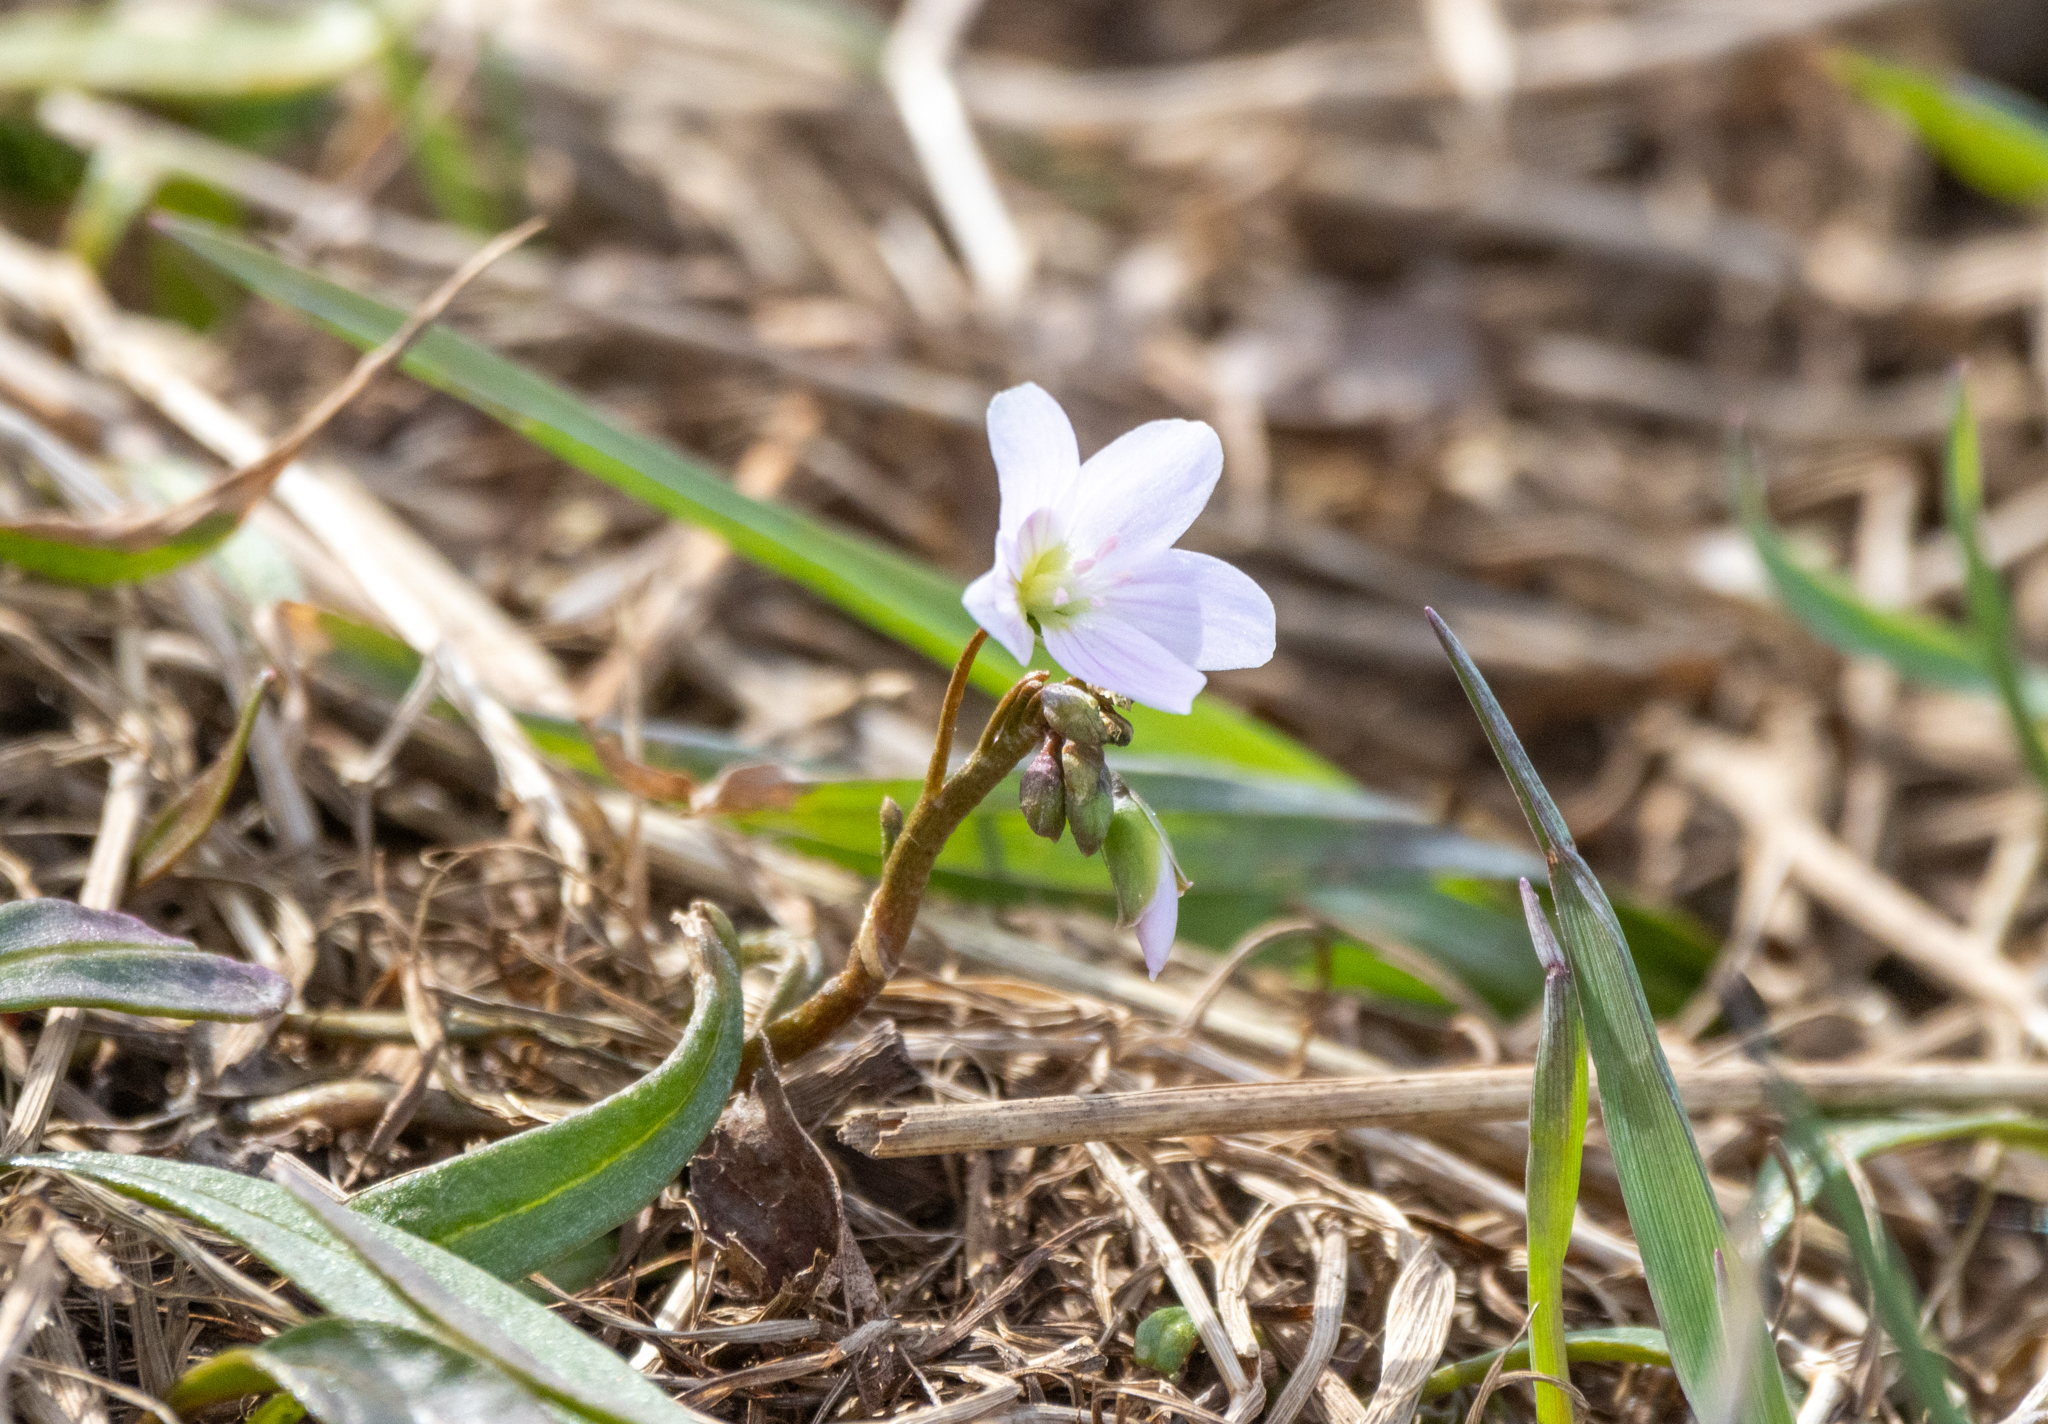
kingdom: Plantae
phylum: Tracheophyta
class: Magnoliopsida
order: Caryophyllales
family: Montiaceae
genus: Claytonia
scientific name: Claytonia virginica
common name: Virginia springbeauty
